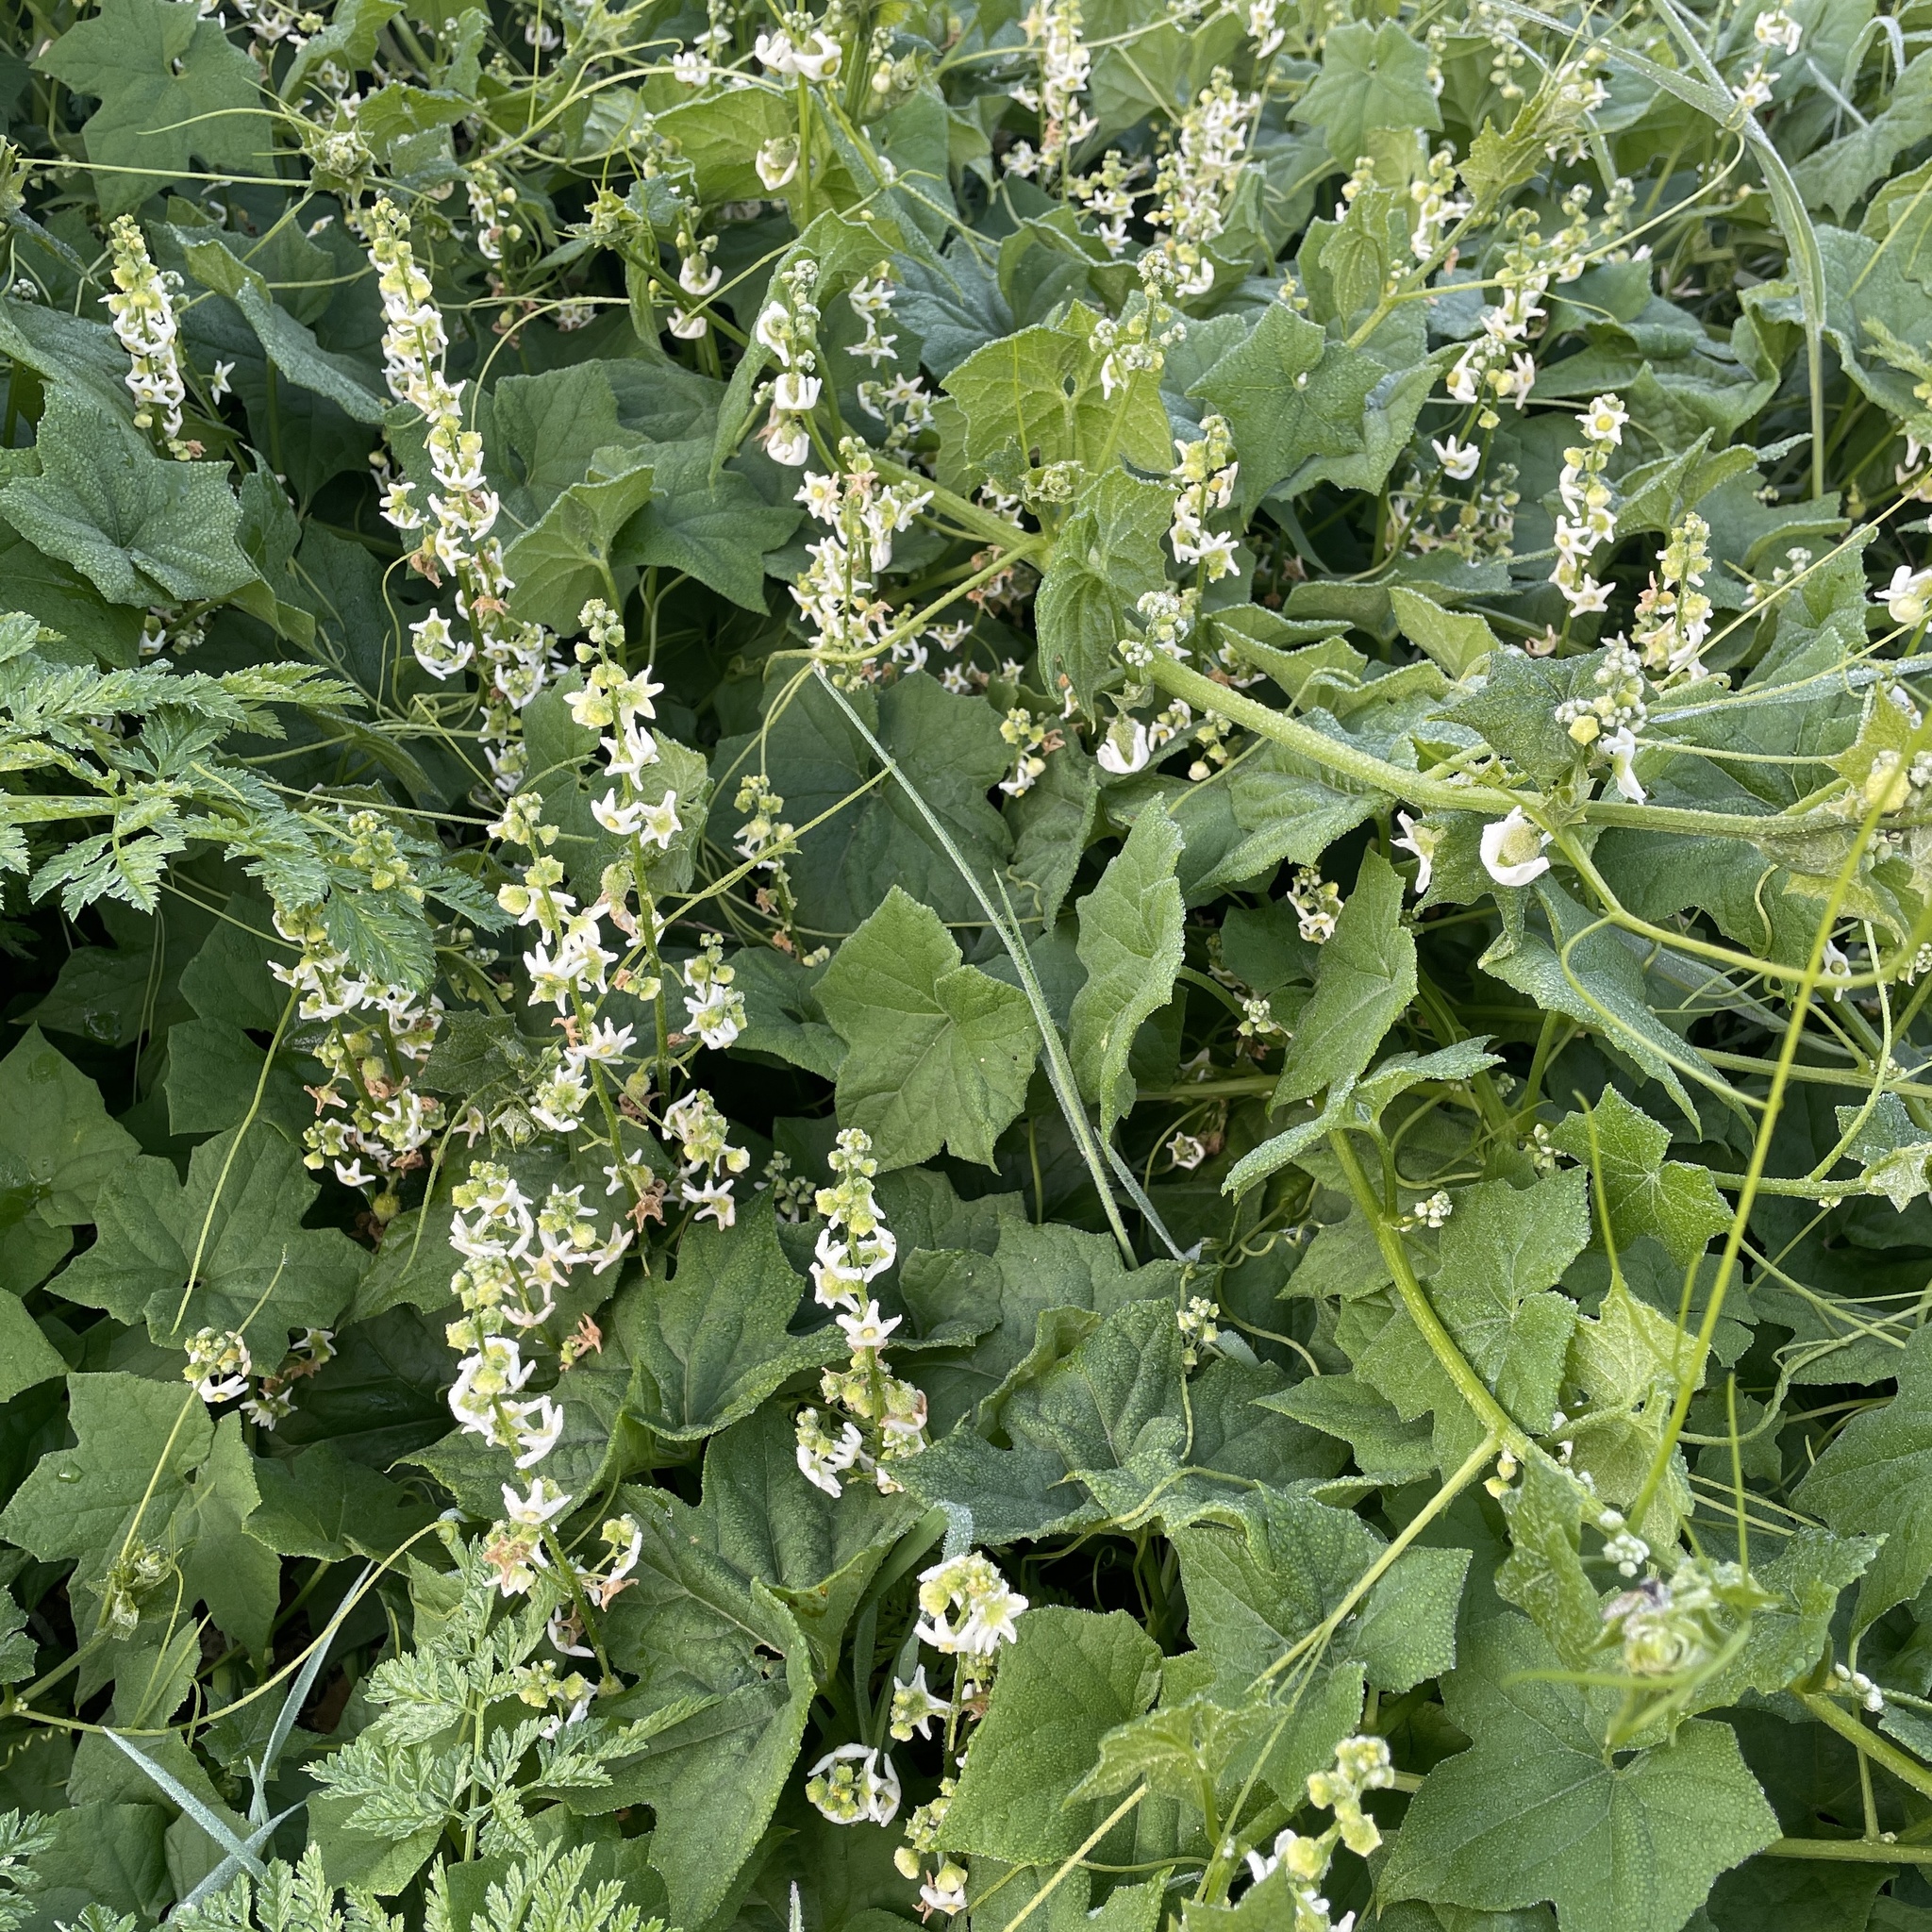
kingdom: Plantae
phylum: Tracheophyta
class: Magnoliopsida
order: Cucurbitales
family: Cucurbitaceae
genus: Marah
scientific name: Marah fabacea
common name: California manroot
